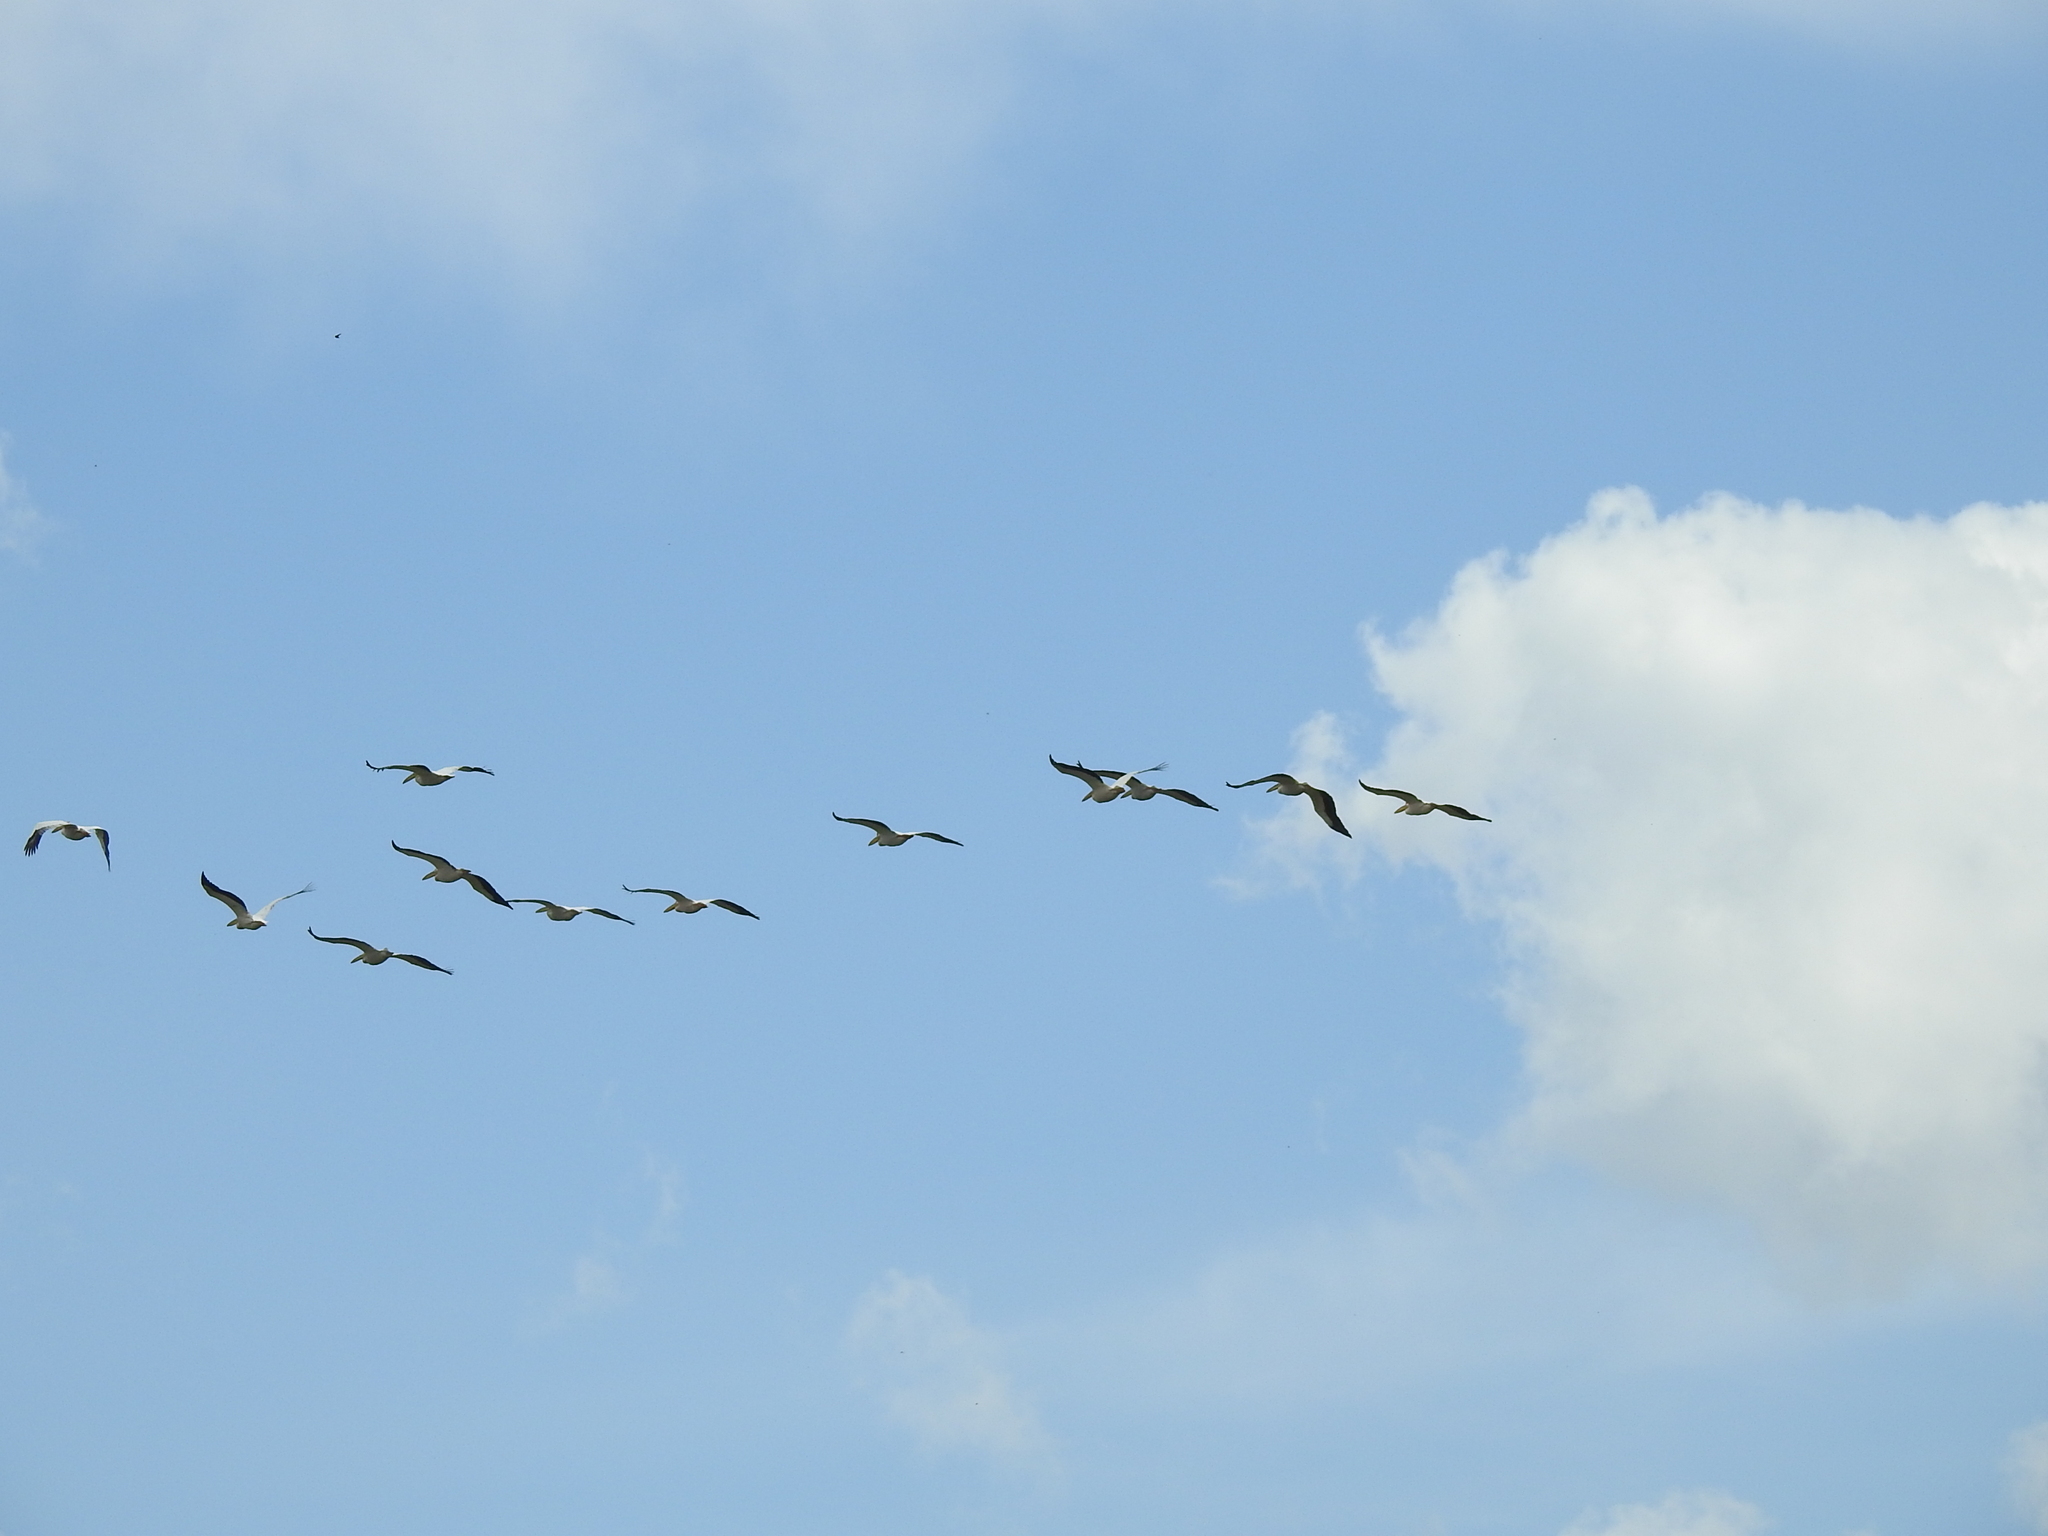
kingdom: Animalia
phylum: Chordata
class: Aves
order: Pelecaniformes
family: Pelecanidae
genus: Pelecanus
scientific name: Pelecanus onocrotalus
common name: Great white pelican
